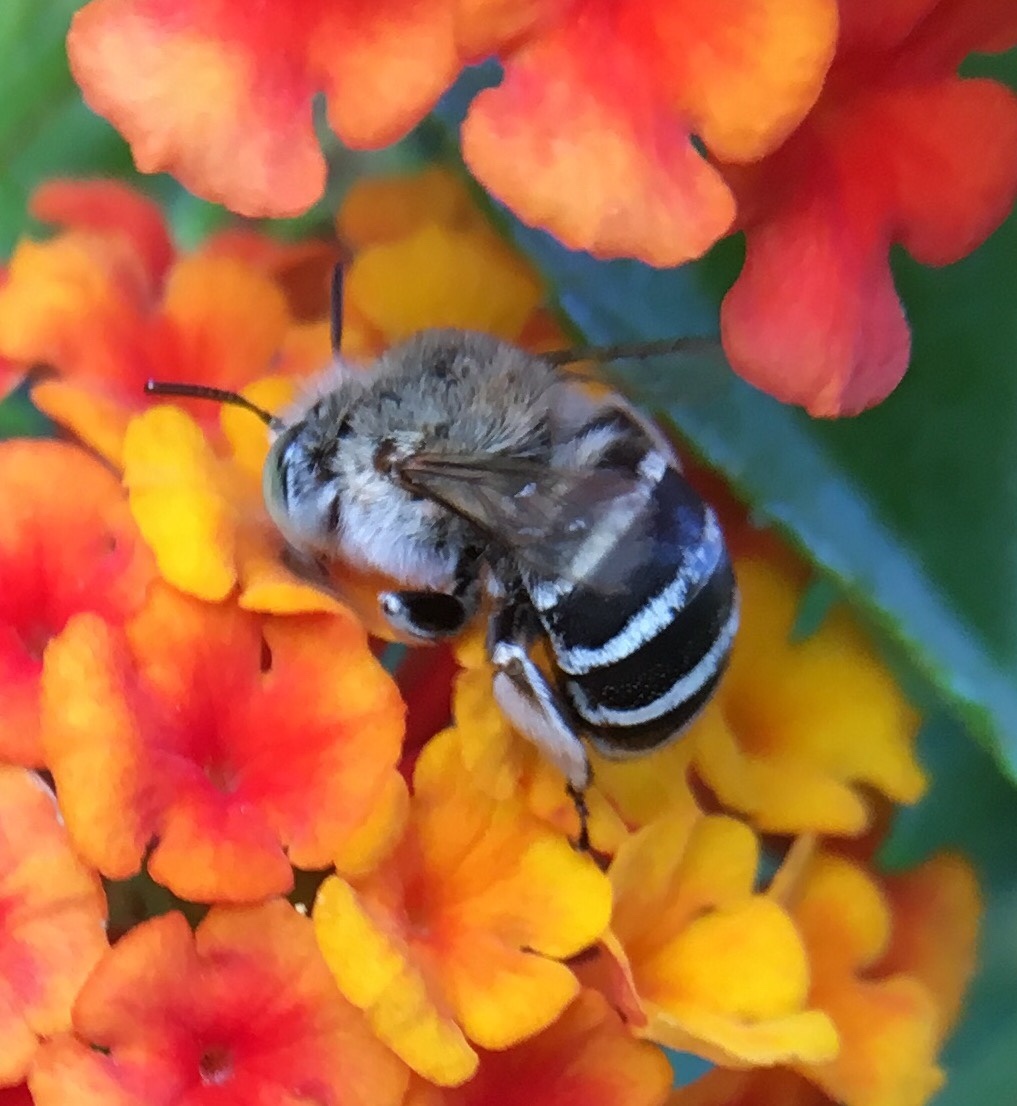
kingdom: Animalia
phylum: Arthropoda
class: Insecta
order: Hymenoptera
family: Apidae
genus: Amegilla
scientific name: Amegilla albigena
